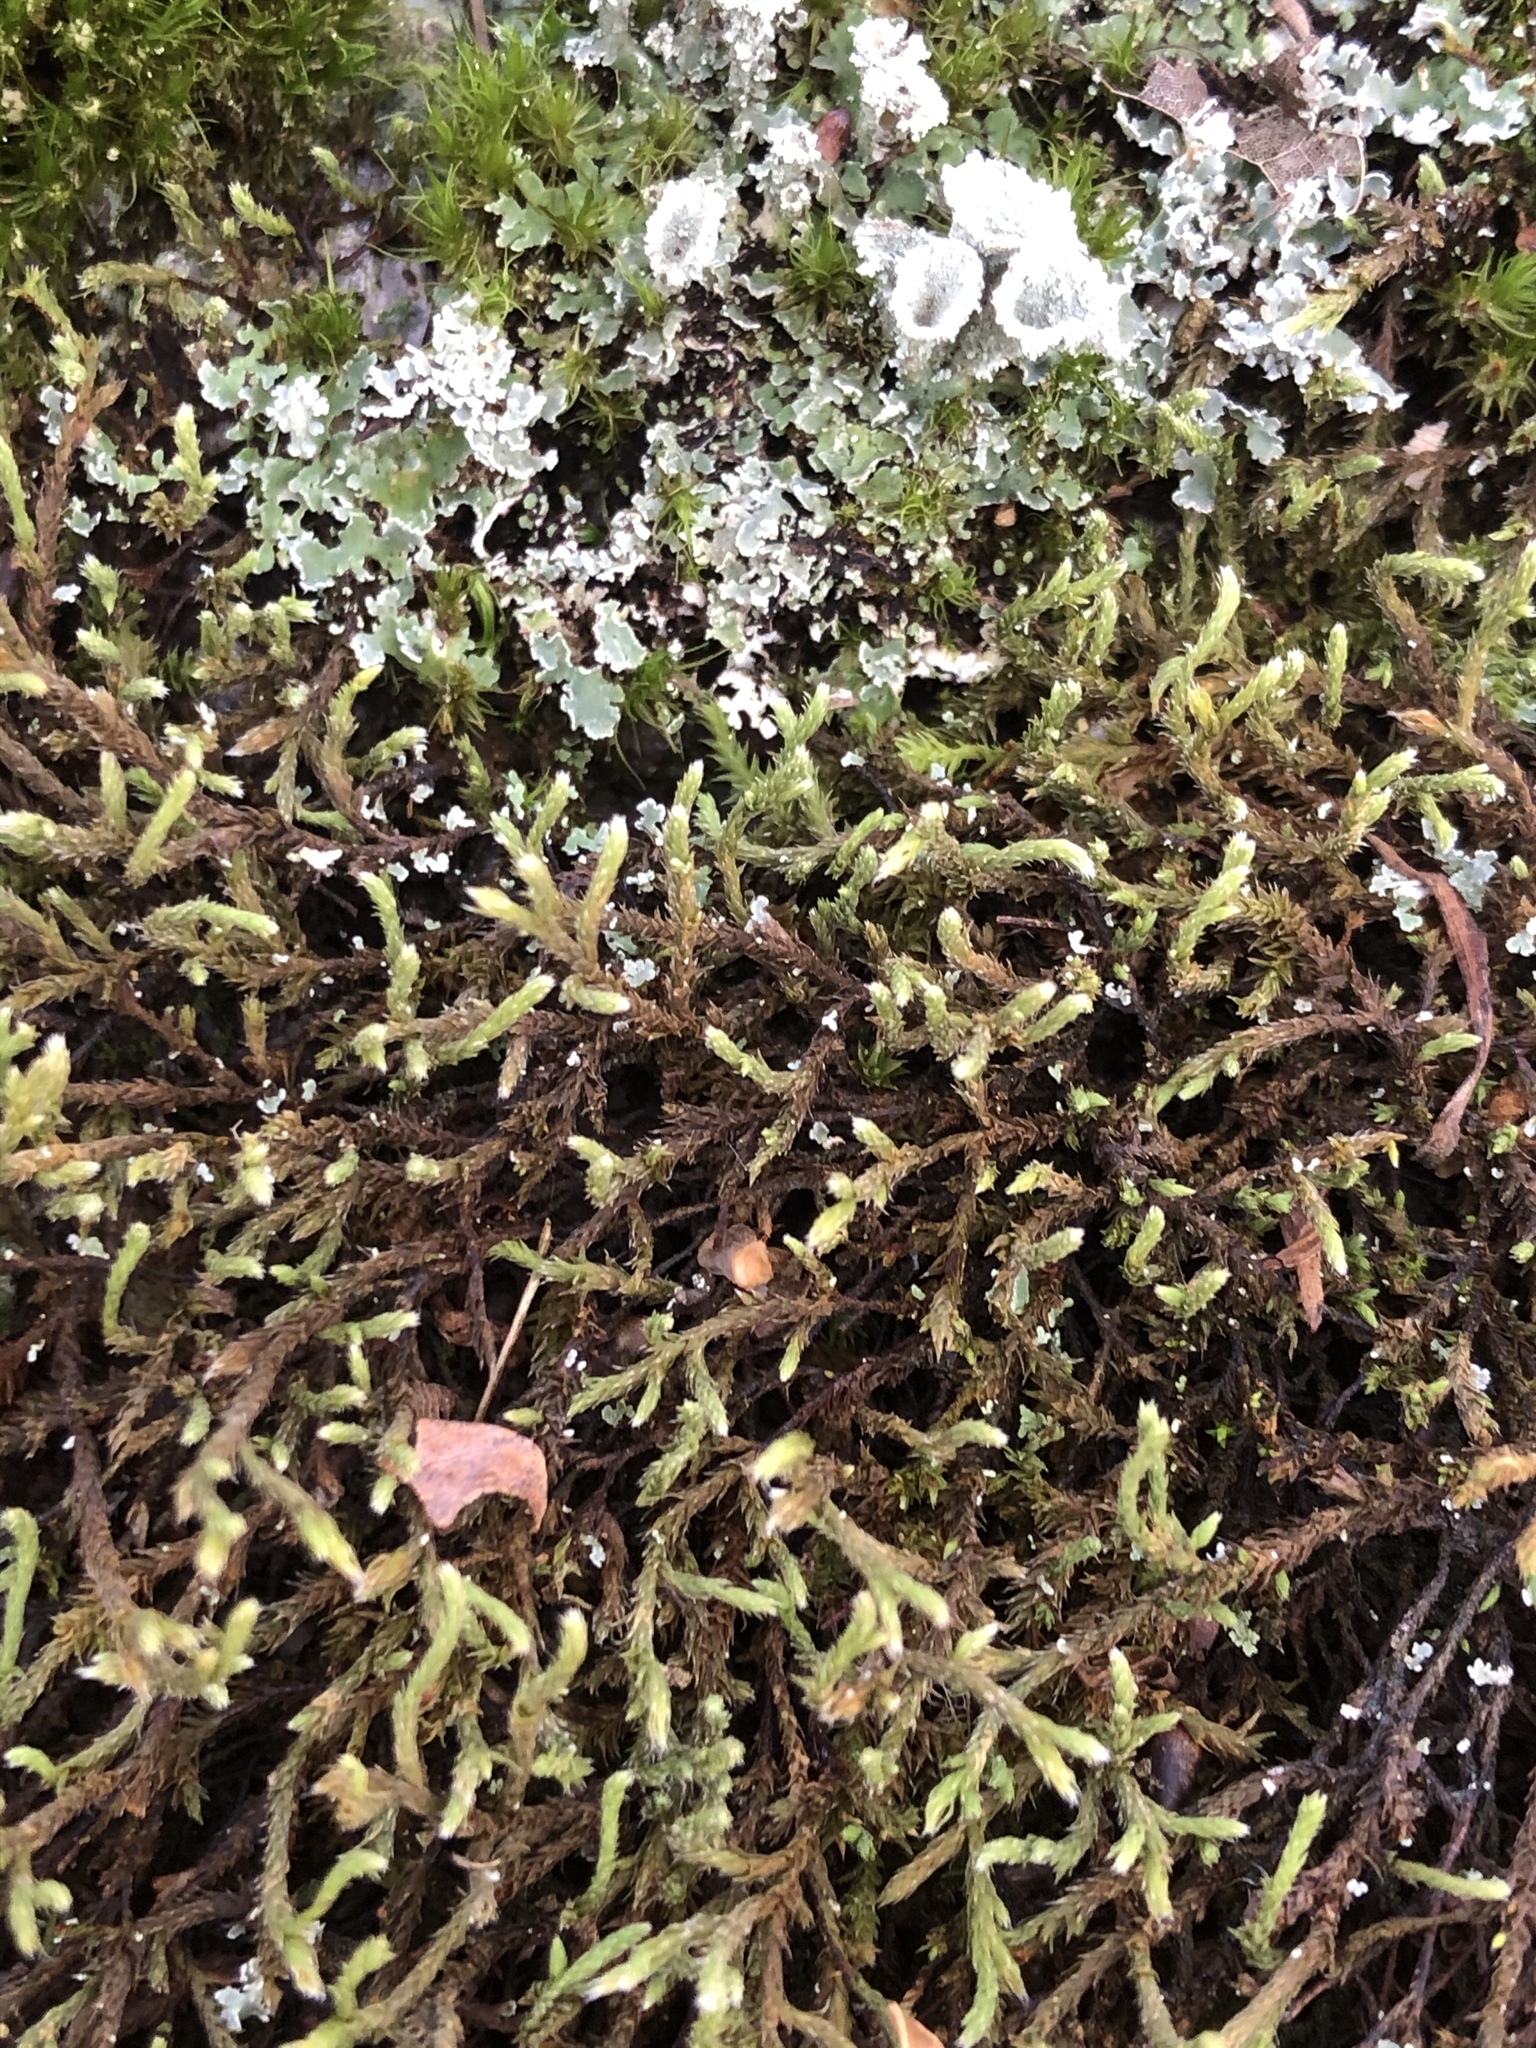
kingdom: Plantae
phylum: Bryophyta
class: Bryopsida
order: Hedwigiales
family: Hedwigiaceae
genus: Hedwigia
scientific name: Hedwigia ciliata
